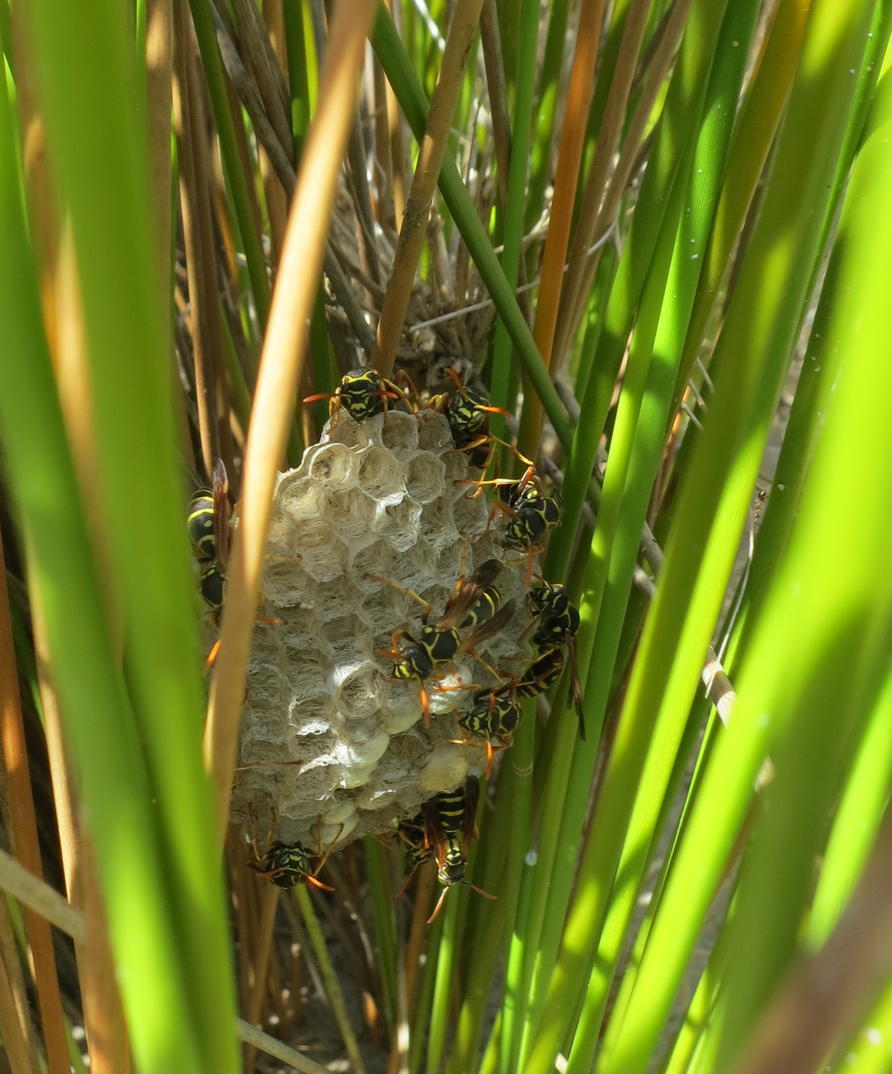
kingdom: Animalia
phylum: Arthropoda
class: Insecta
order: Hymenoptera
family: Eumenidae
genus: Polistes
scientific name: Polistes chinensis
